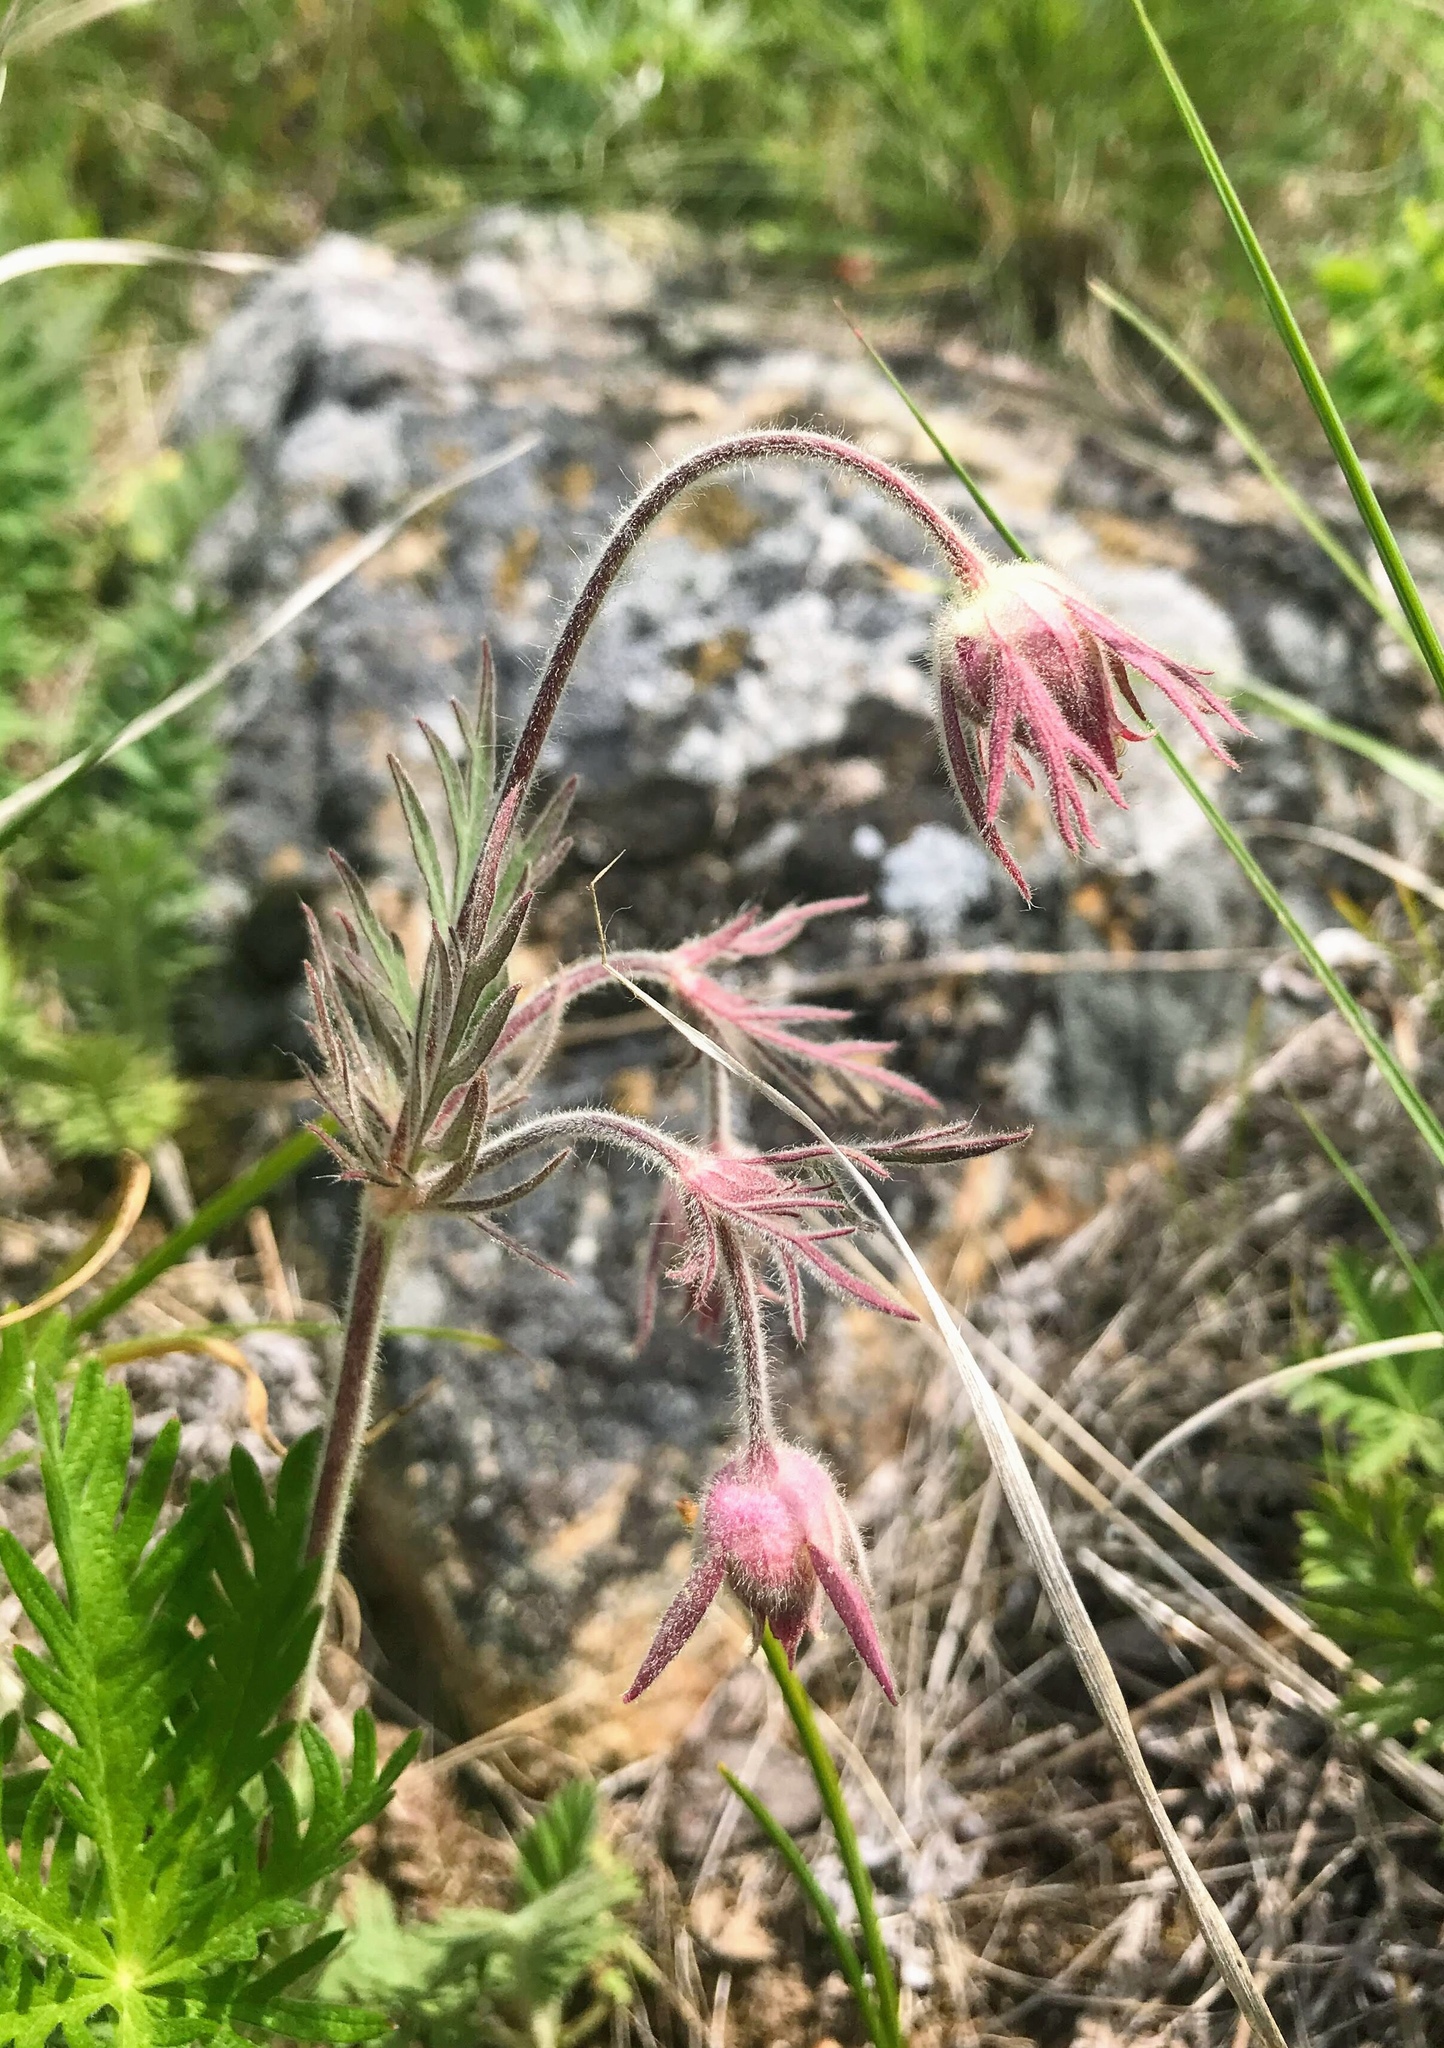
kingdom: Plantae
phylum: Tracheophyta
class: Magnoliopsida
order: Rosales
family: Rosaceae
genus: Geum
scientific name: Geum triflorum
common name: Old man's whiskers
